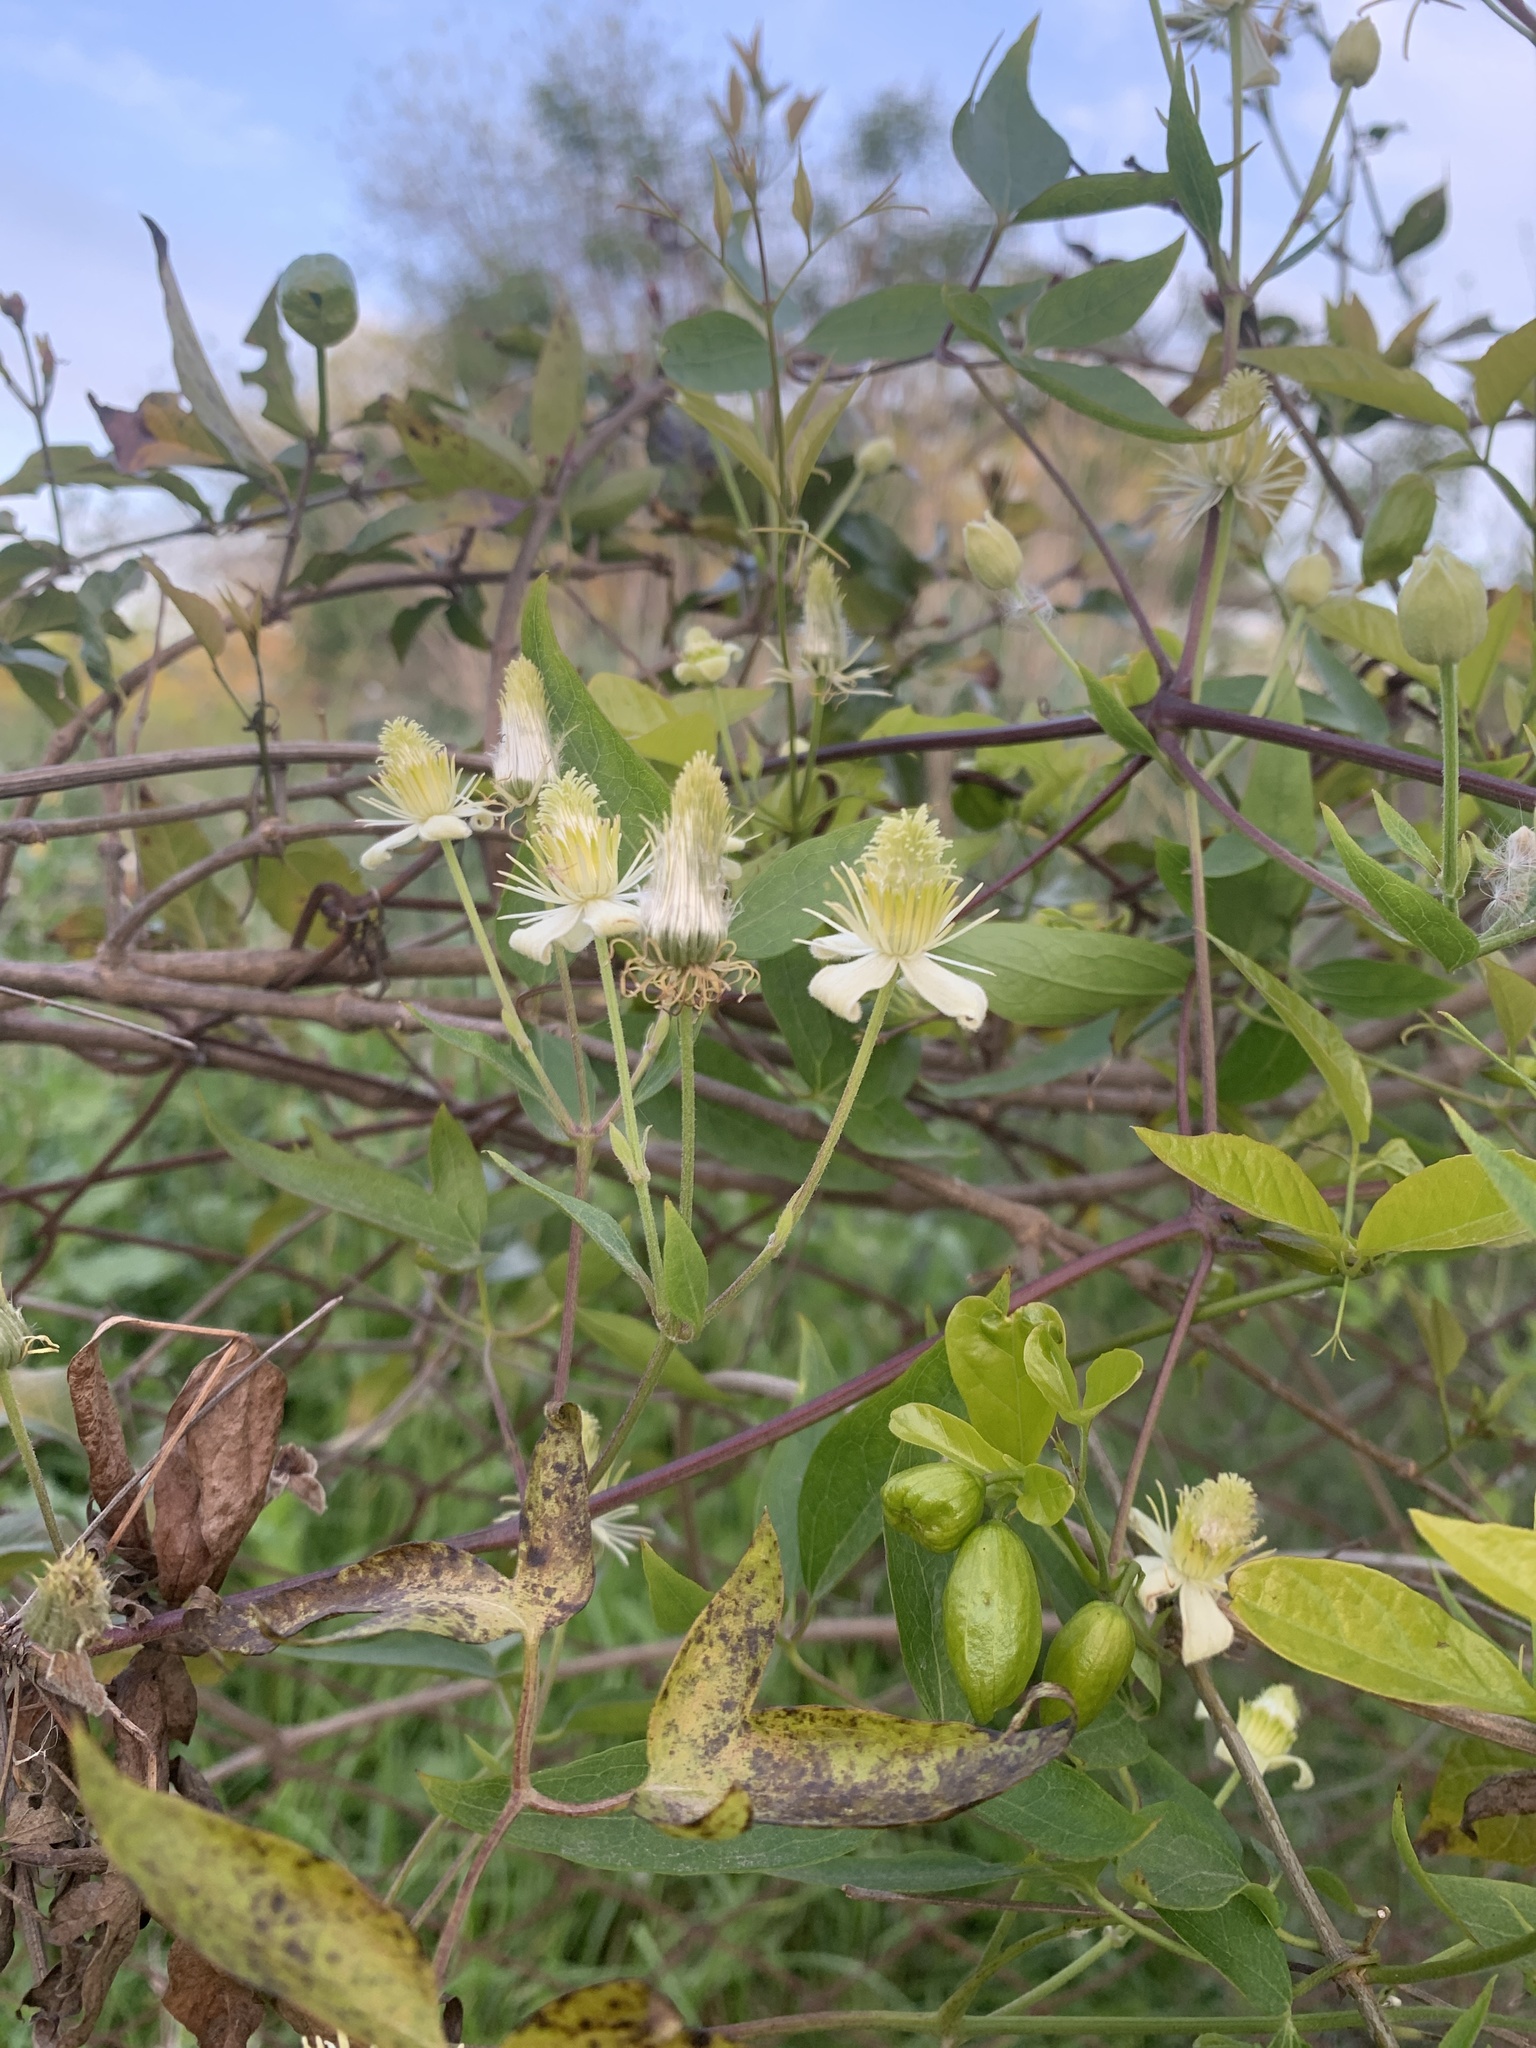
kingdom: Plantae
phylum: Tracheophyta
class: Magnoliopsida
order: Ranunculales
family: Ranunculaceae
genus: Clematis
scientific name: Clematis montevidensis
